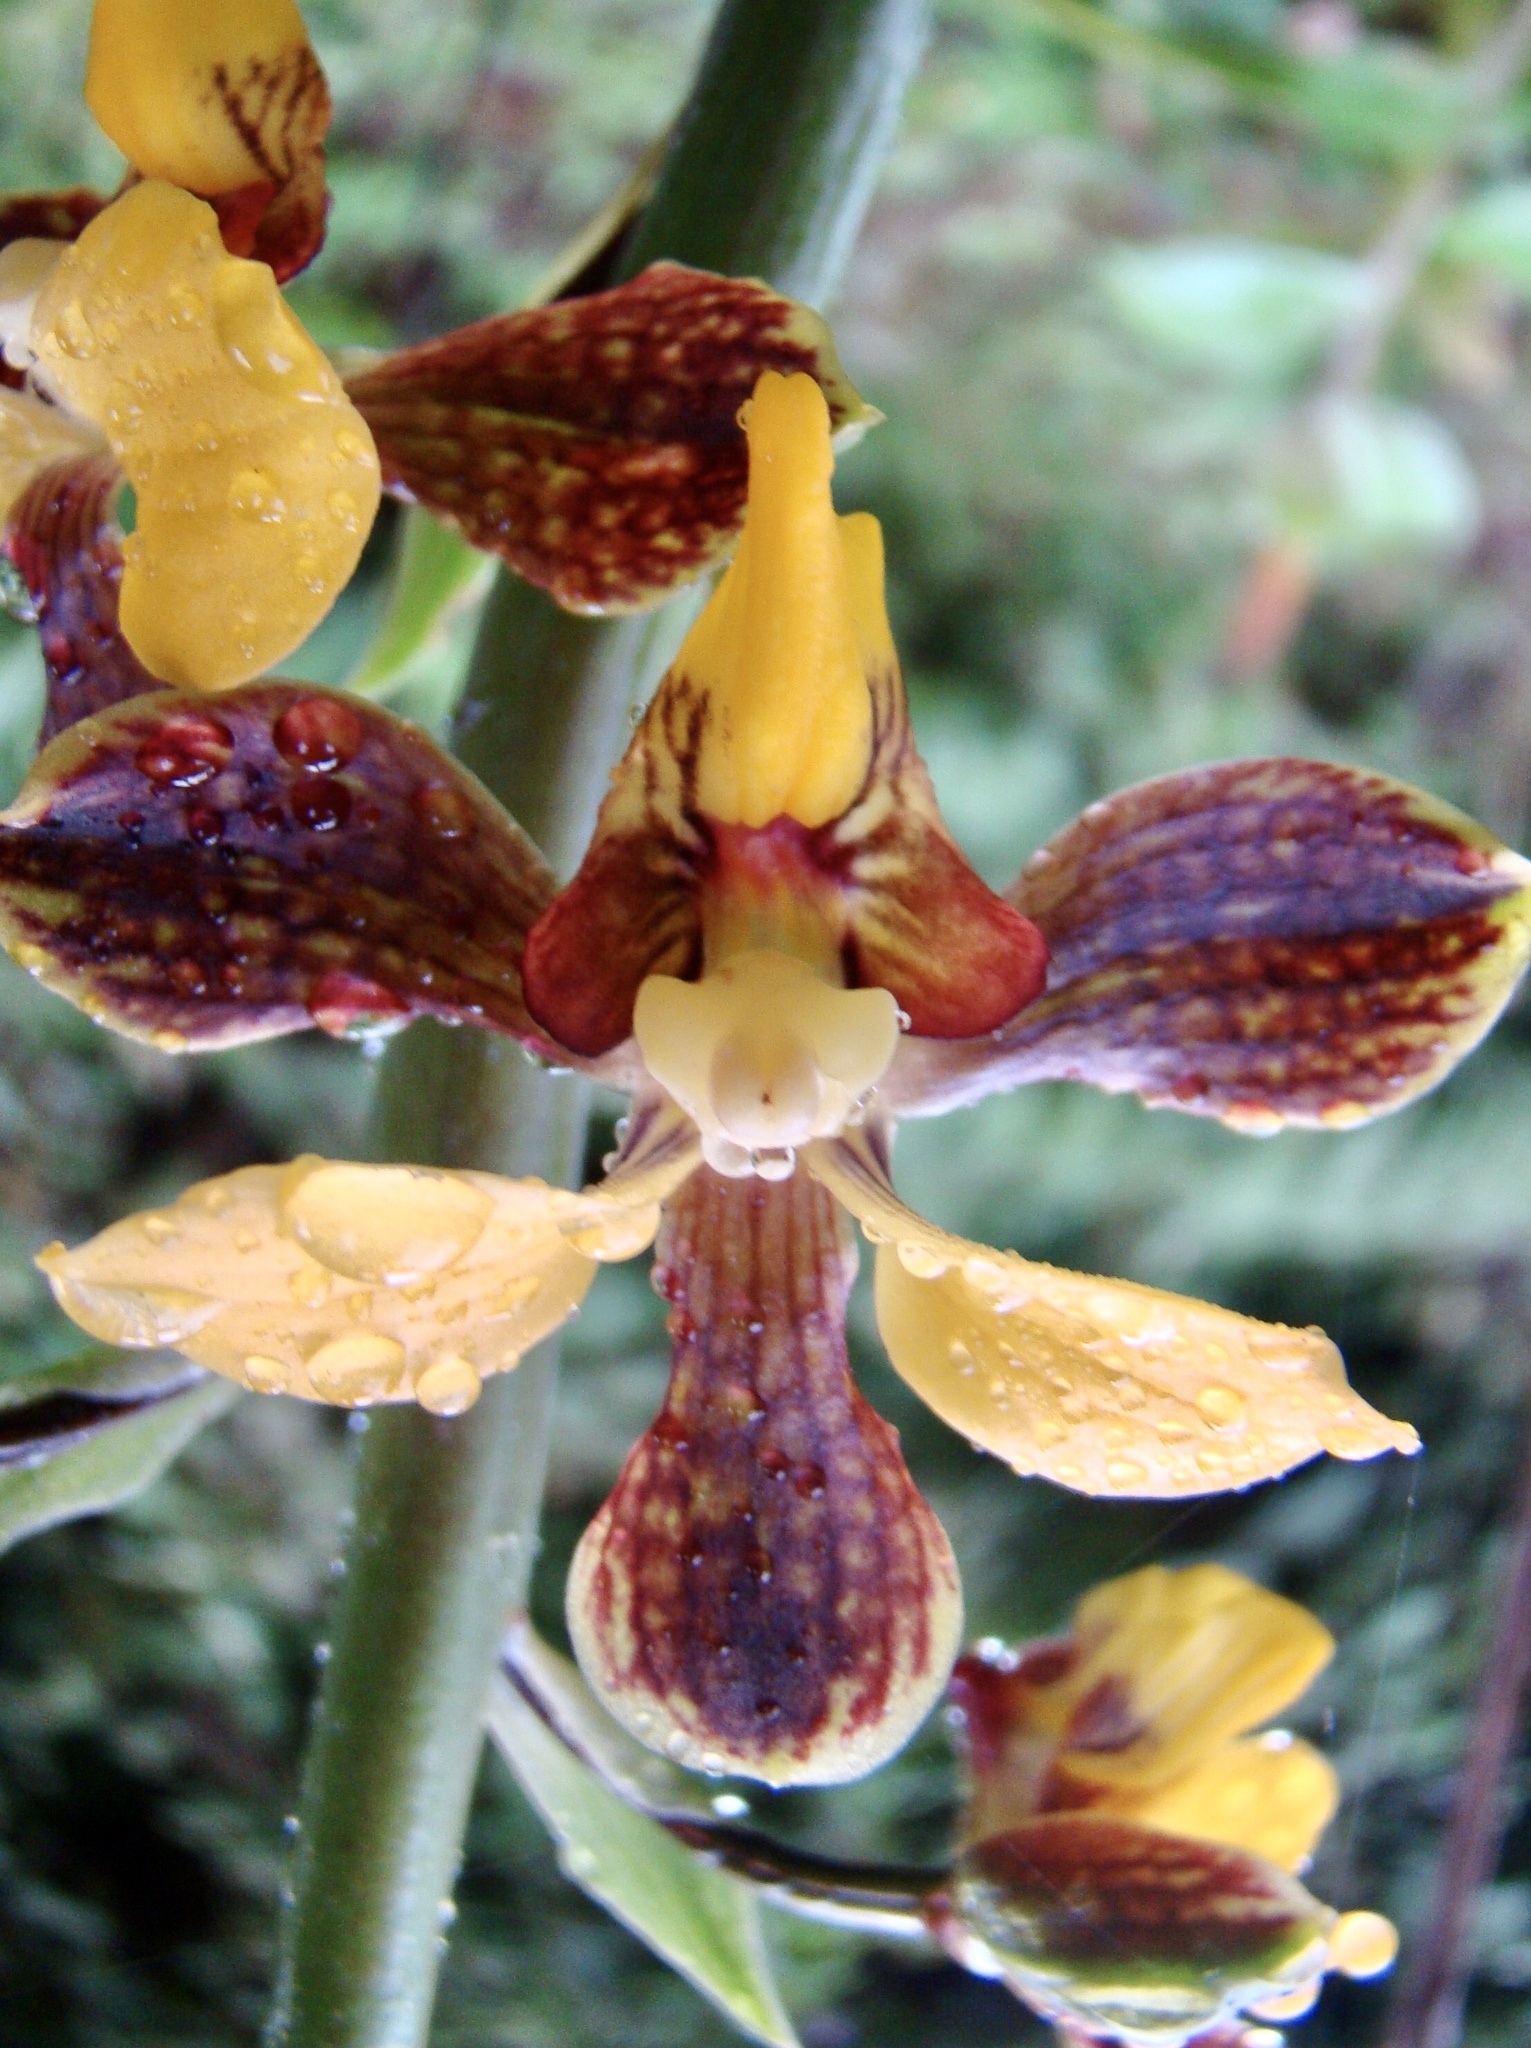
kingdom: Plantae
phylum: Tracheophyta
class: Liliopsida
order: Asparagales
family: Orchidaceae
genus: Eulophia
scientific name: Eulophia streptopetala
